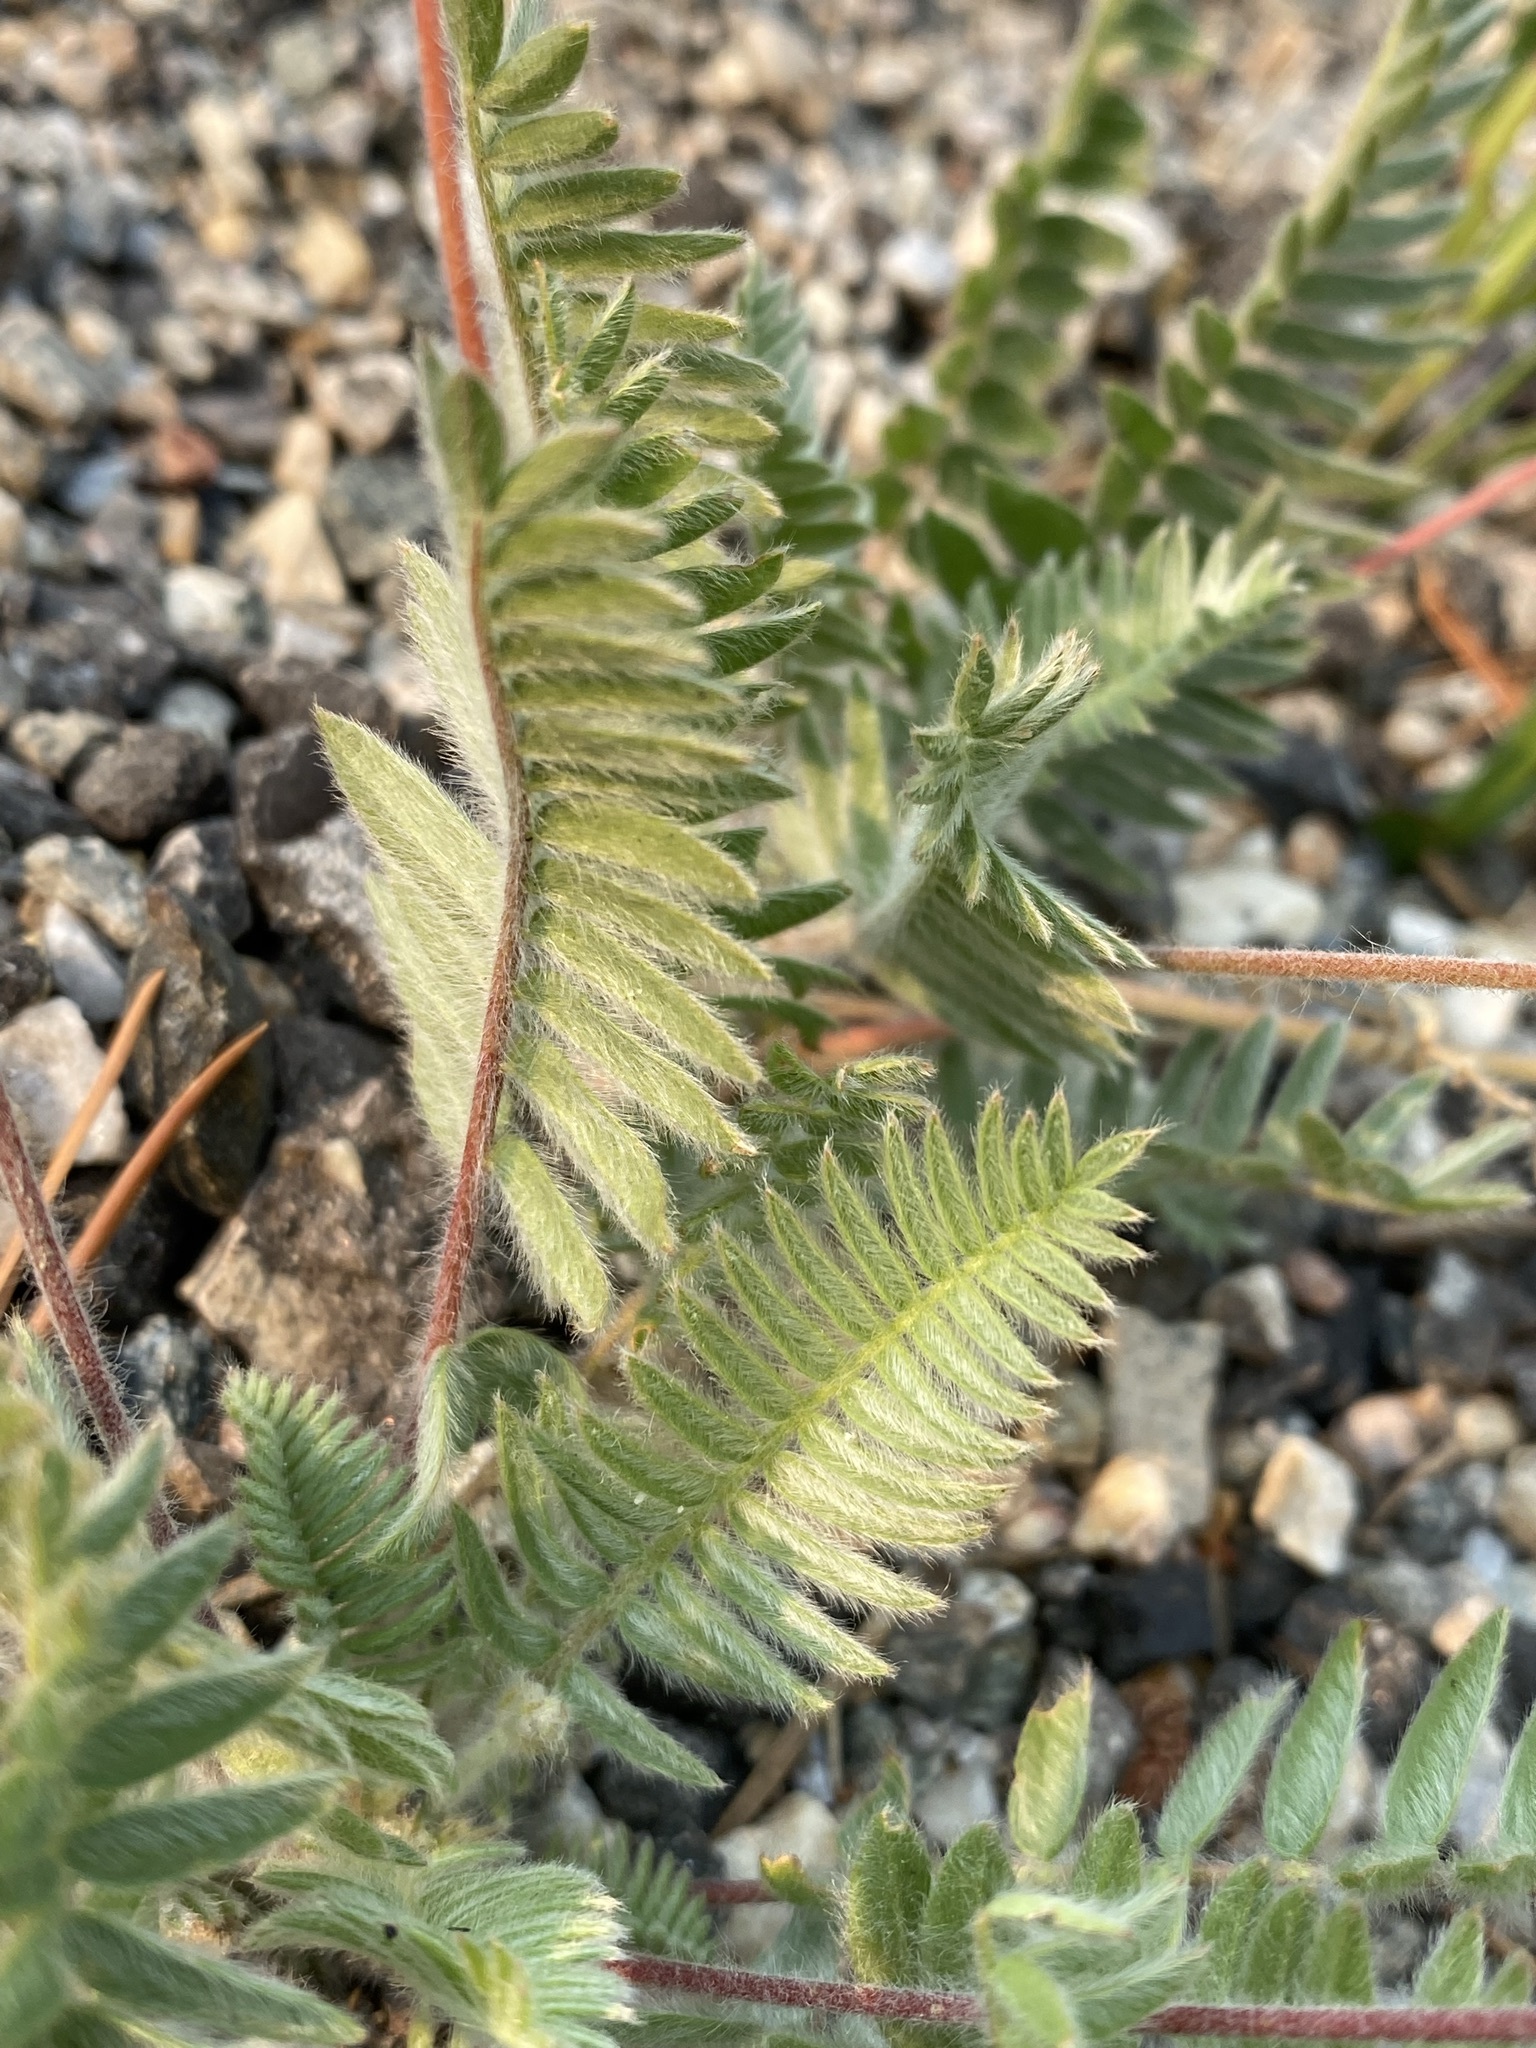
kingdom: Plantae
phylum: Tracheophyta
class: Magnoliopsida
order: Fabales
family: Fabaceae
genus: Oxytropis
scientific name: Oxytropis deflexa
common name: Stemmed oxytrope
